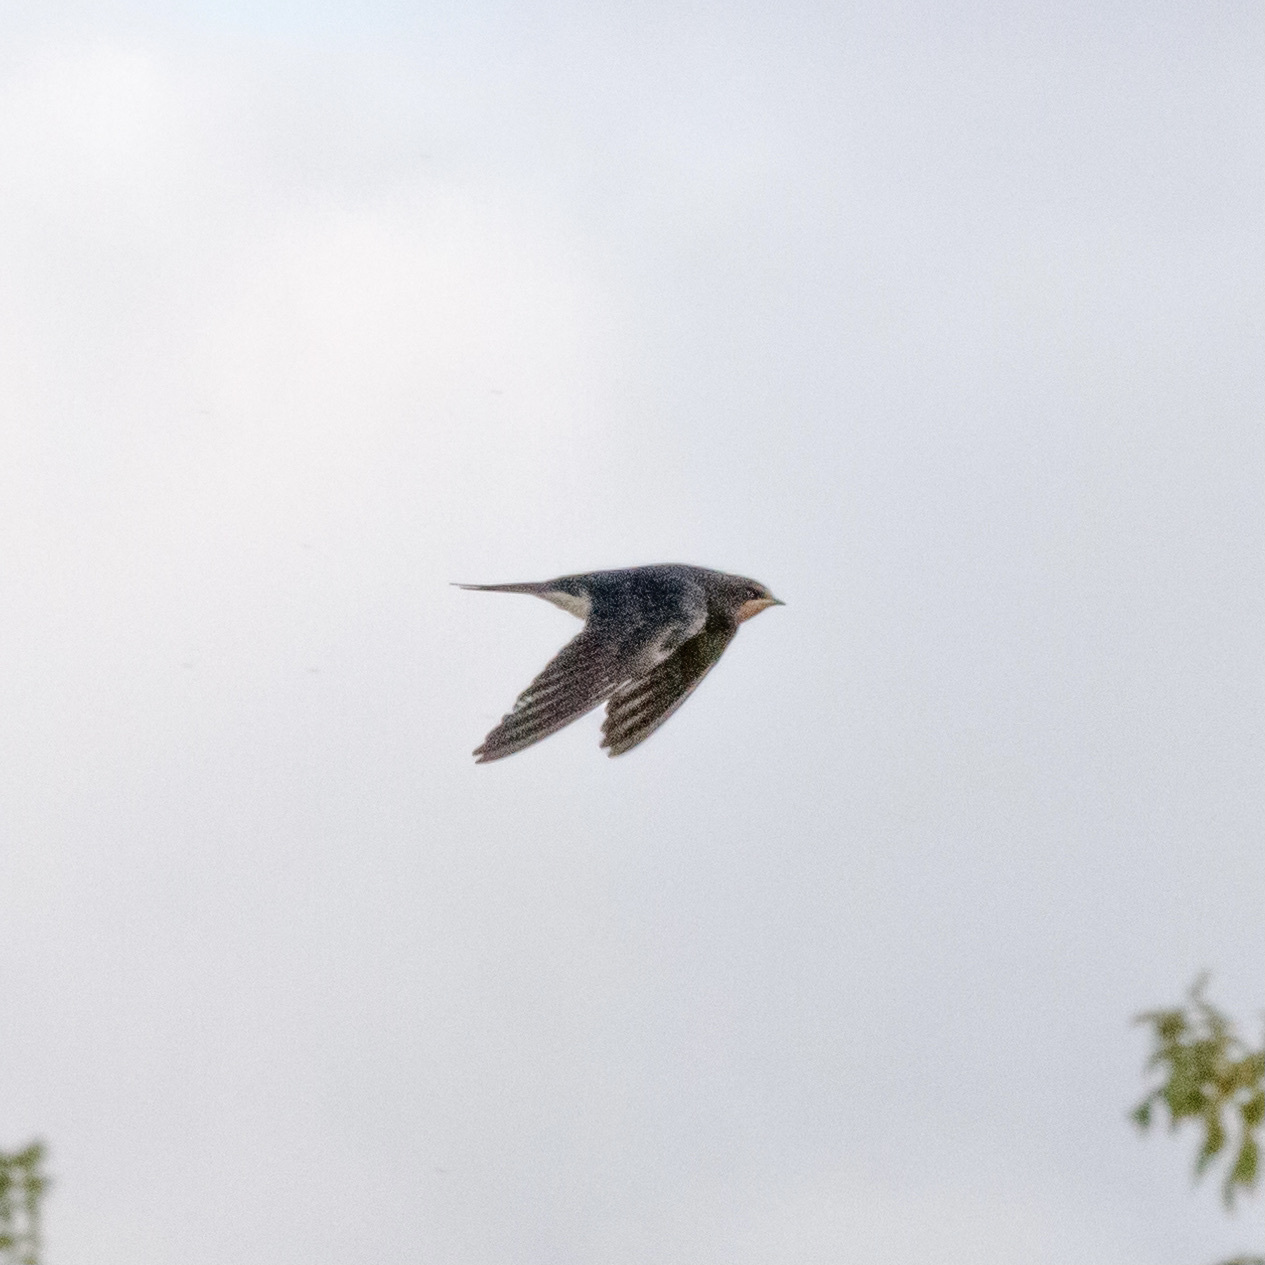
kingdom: Animalia
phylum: Chordata
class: Aves
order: Passeriformes
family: Hirundinidae
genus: Hirundo
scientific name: Hirundo rustica
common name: Barn swallow
